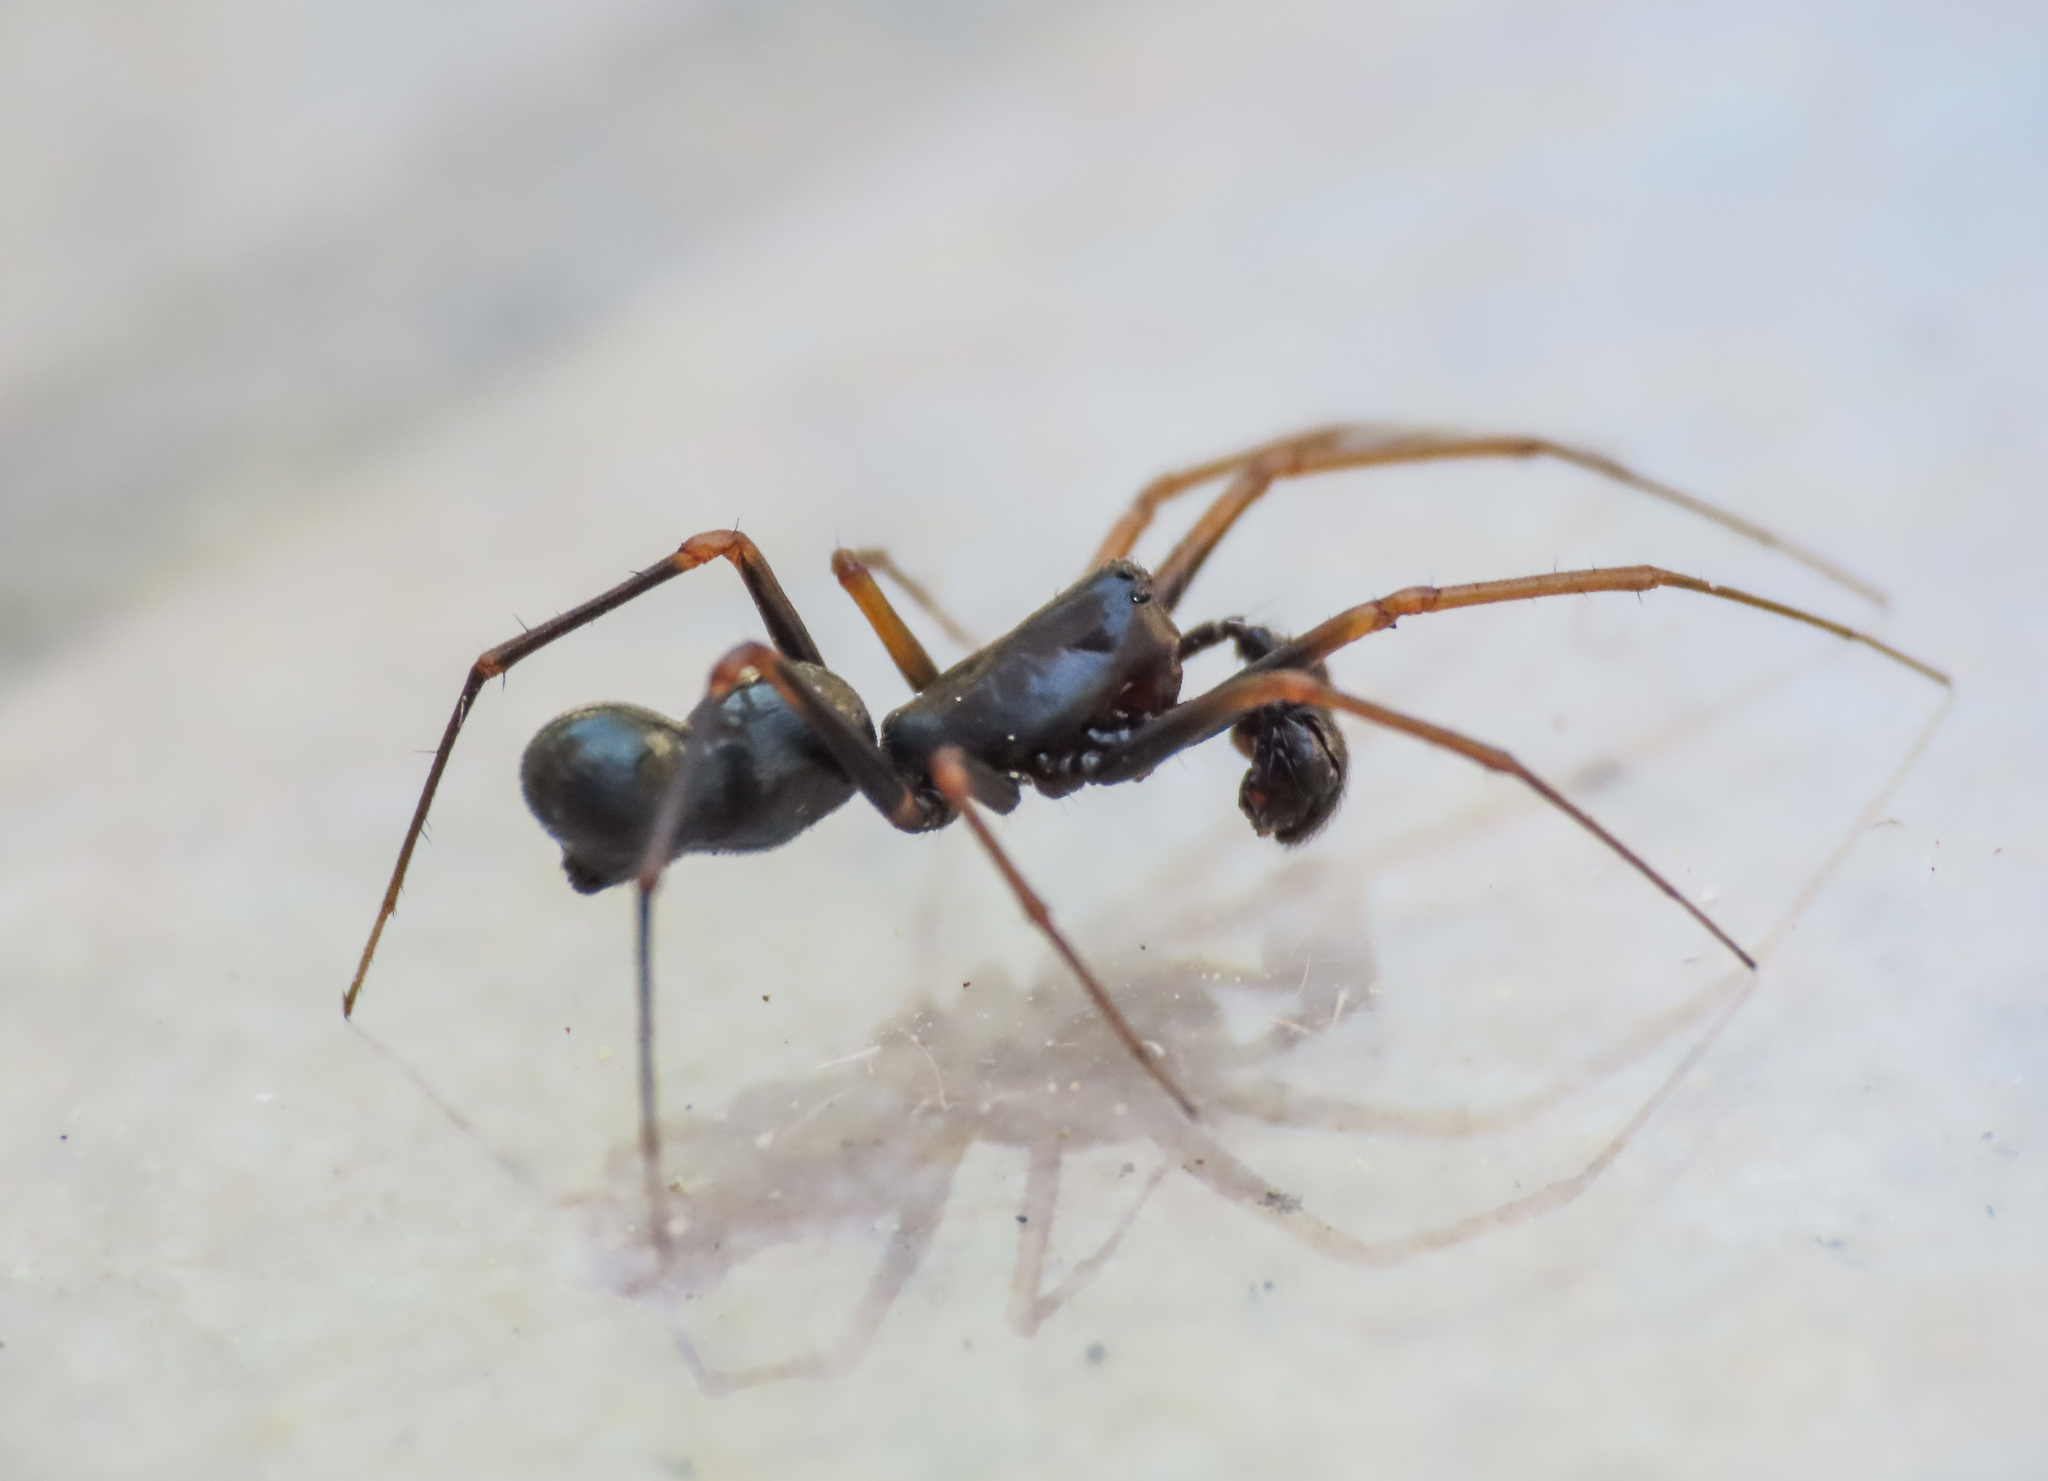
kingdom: Animalia
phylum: Arthropoda
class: Arachnida
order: Araneae
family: Linyphiidae
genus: Neriene
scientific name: Neriene furtiva
